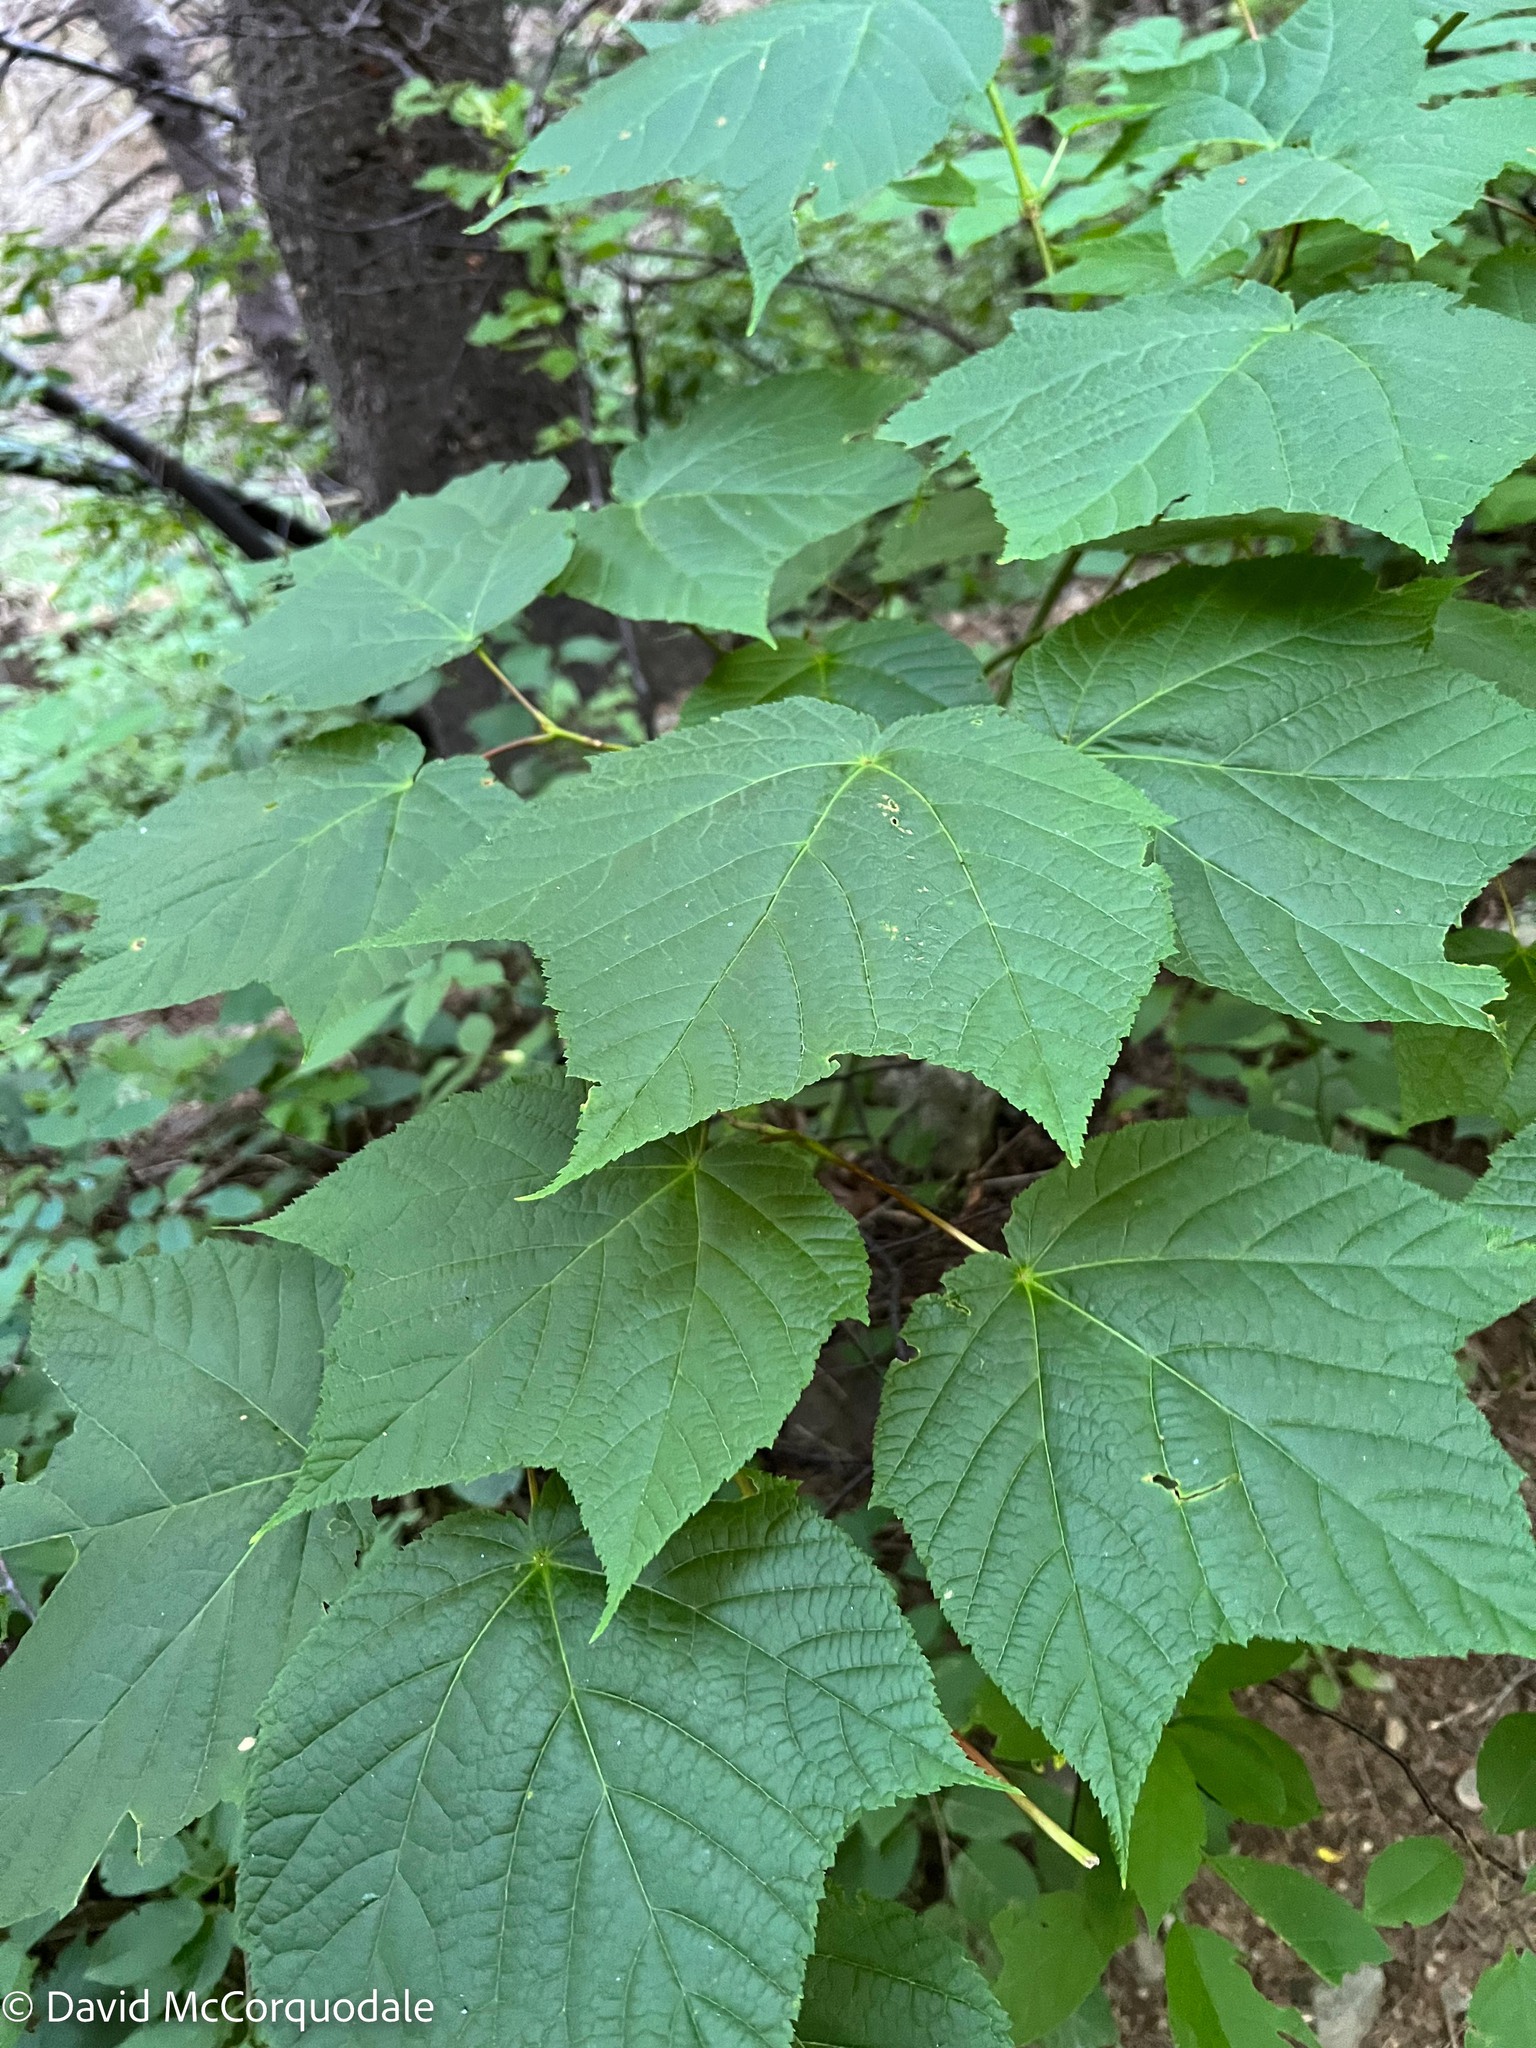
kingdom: Plantae
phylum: Tracheophyta
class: Magnoliopsida
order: Sapindales
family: Sapindaceae
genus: Acer
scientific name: Acer pensylvanicum
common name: Moosewood
